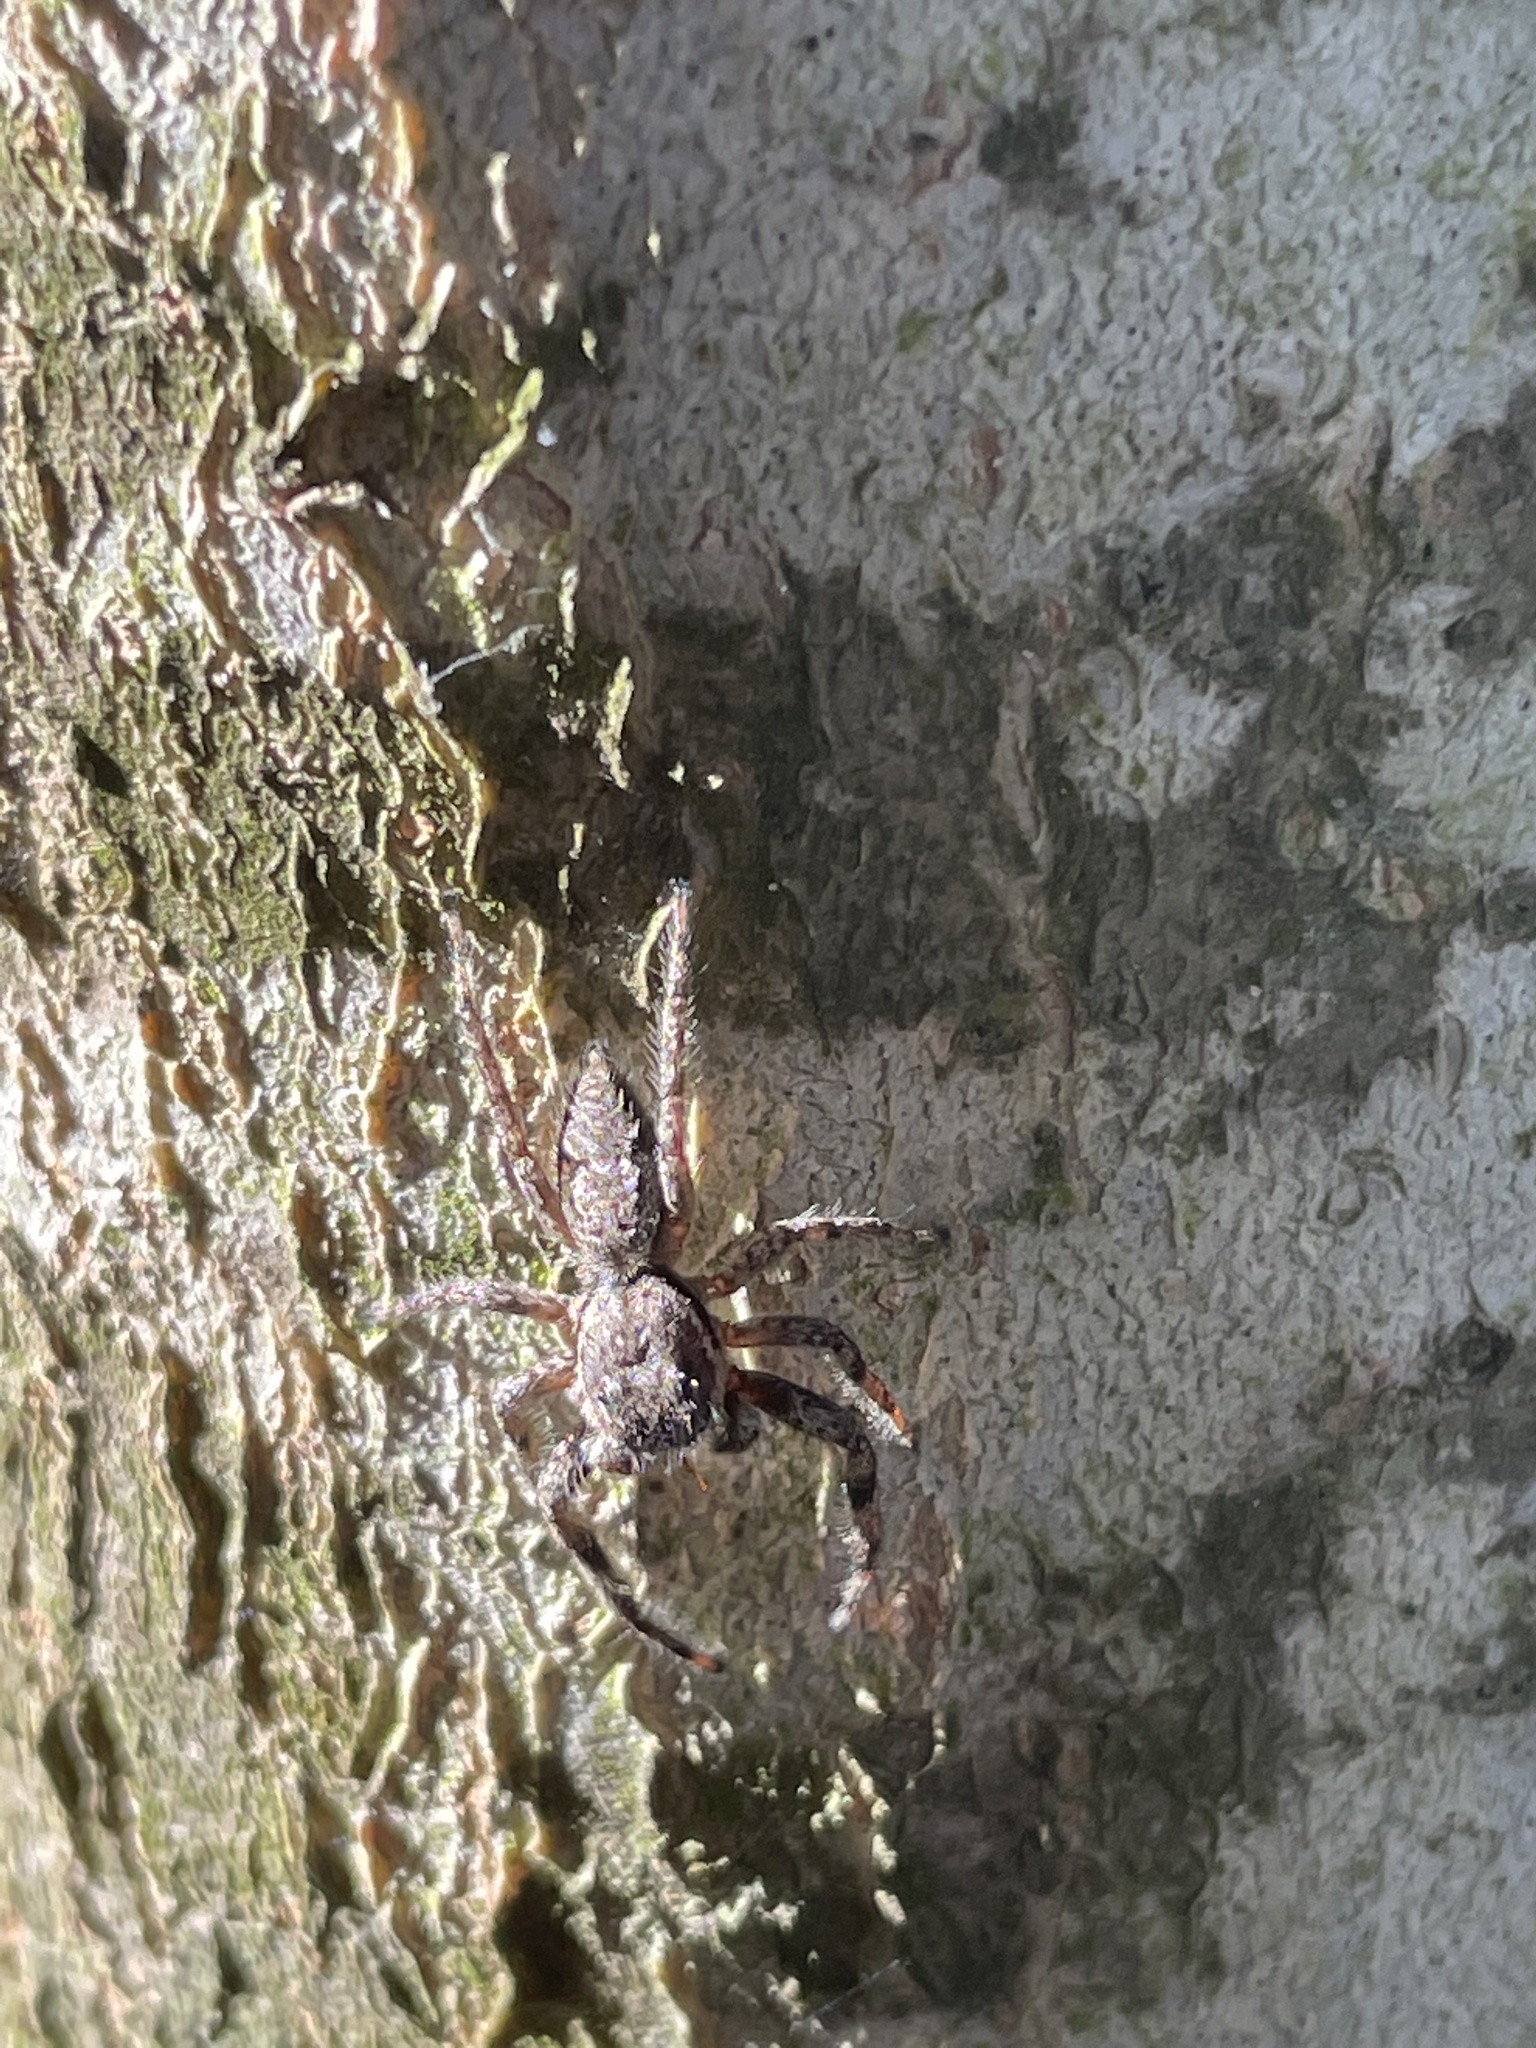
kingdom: Animalia
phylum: Arthropoda
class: Arachnida
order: Araneae
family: Salticidae
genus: Platycryptus
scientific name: Platycryptus undatus
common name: Tan jumping spider
